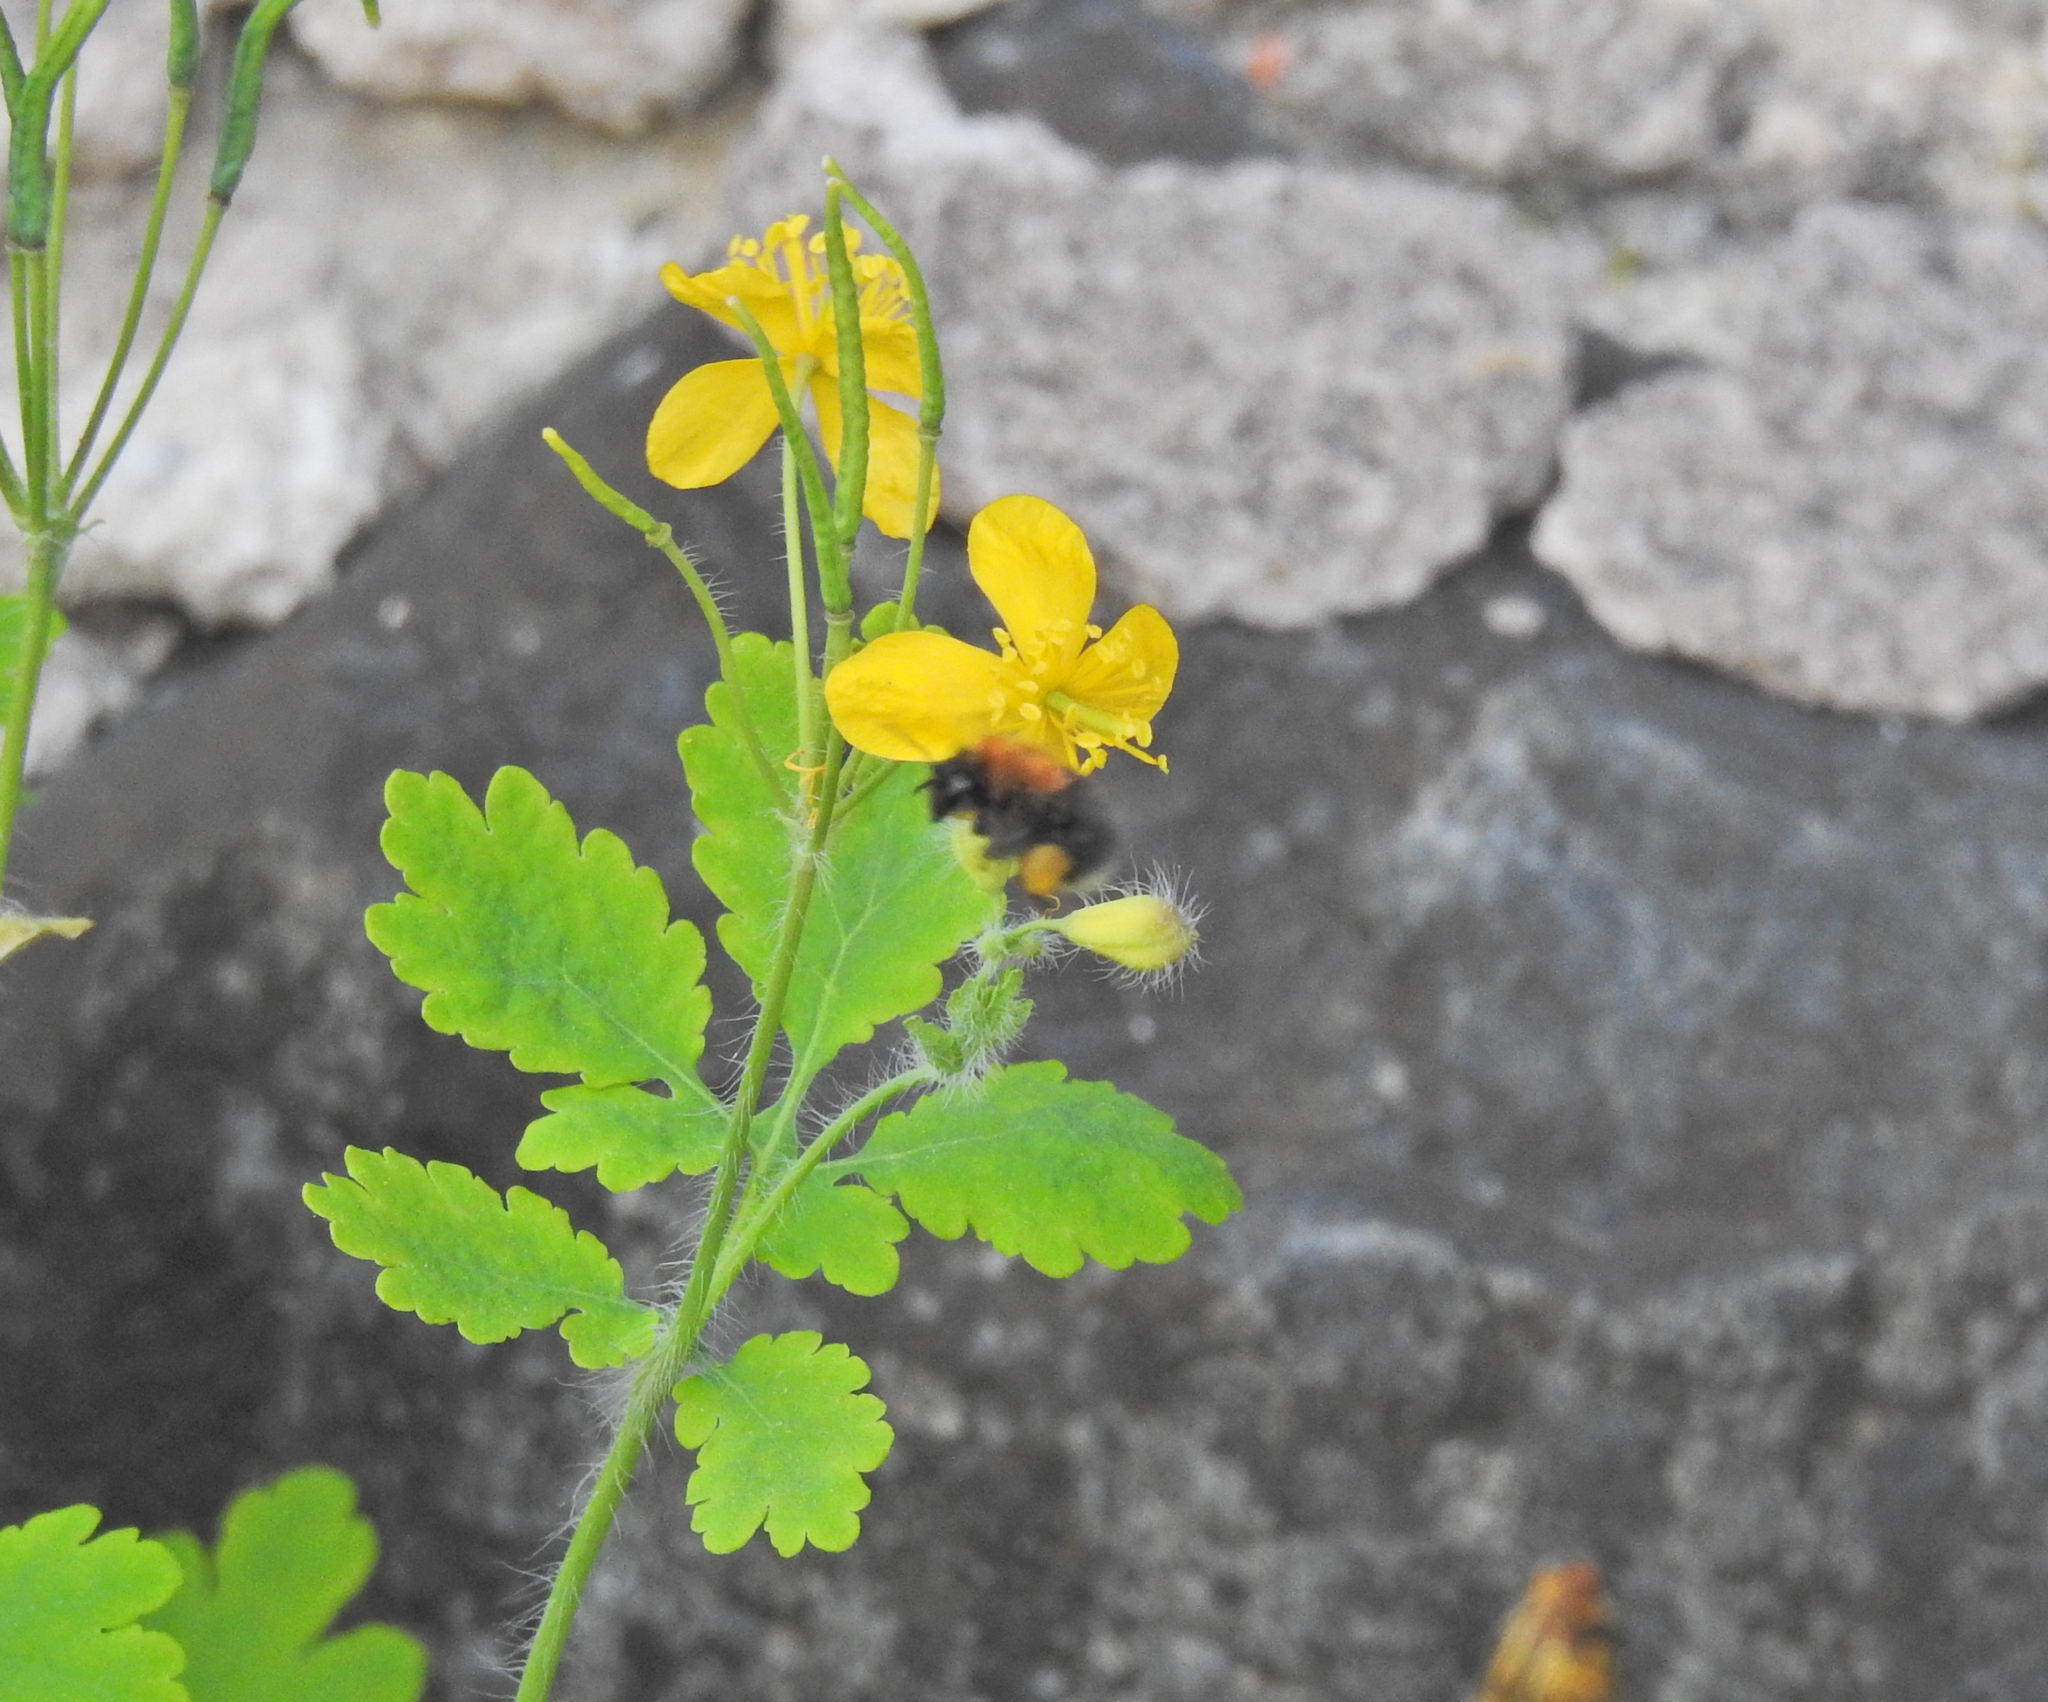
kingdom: Animalia
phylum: Arthropoda
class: Insecta
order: Hymenoptera
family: Apidae
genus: Bombus
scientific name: Bombus hypnorum
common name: New garden bumblebee
